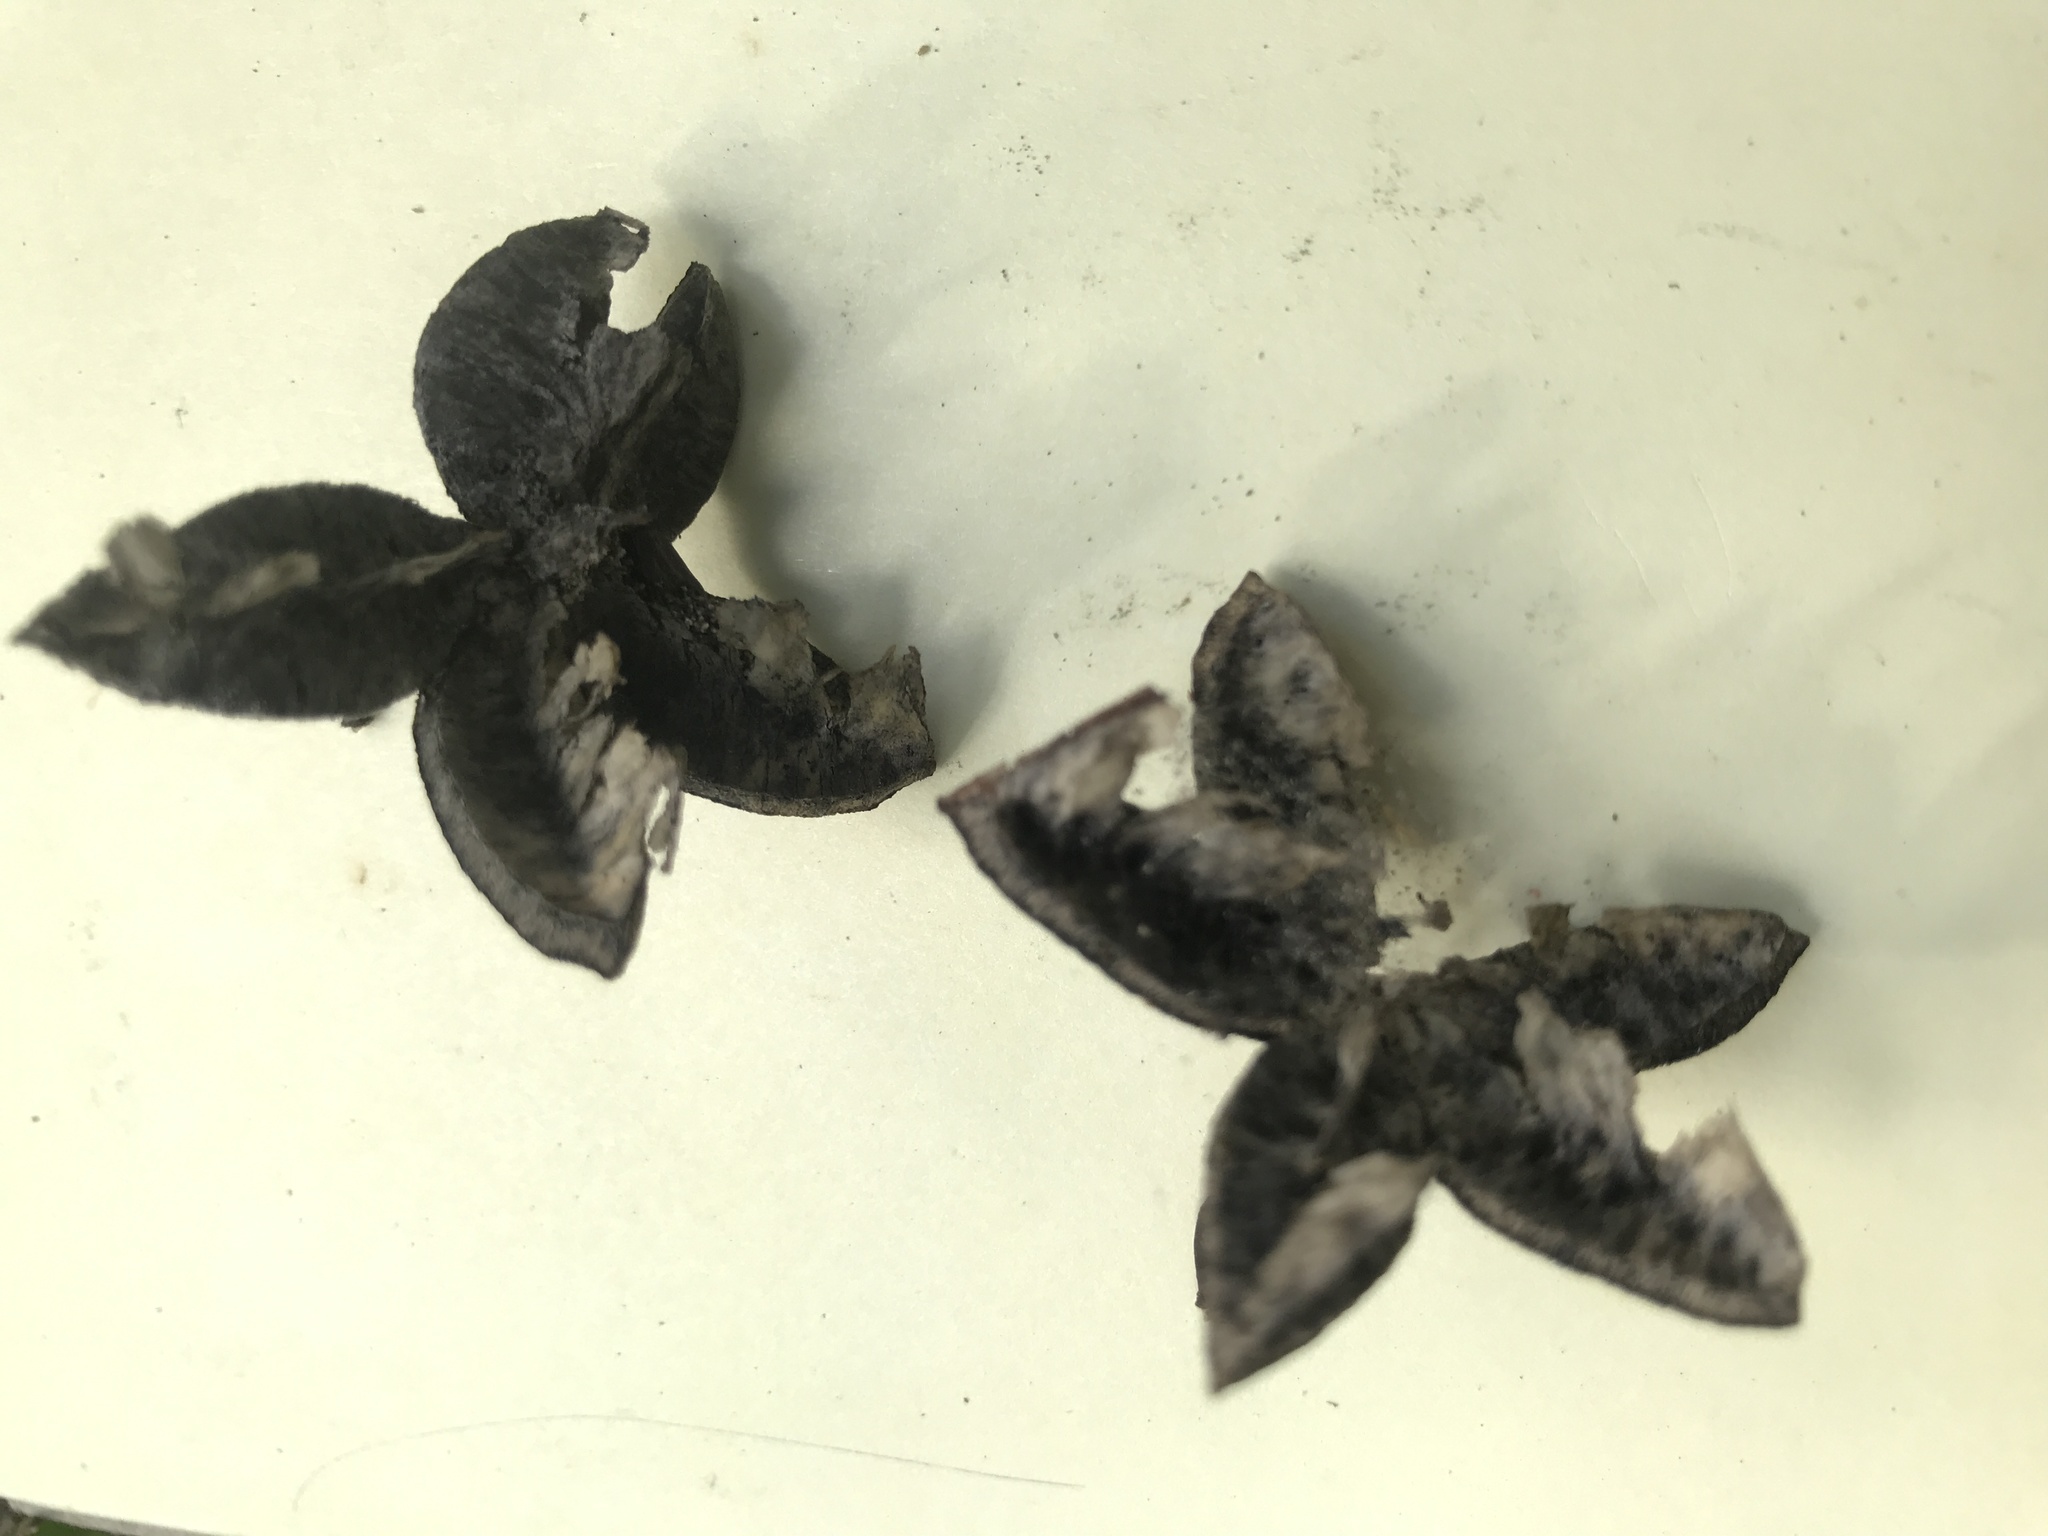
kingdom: Plantae
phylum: Tracheophyta
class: Magnoliopsida
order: Celastrales
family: Celastraceae
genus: Hedraianthera
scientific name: Hedraianthera porphyropetala
